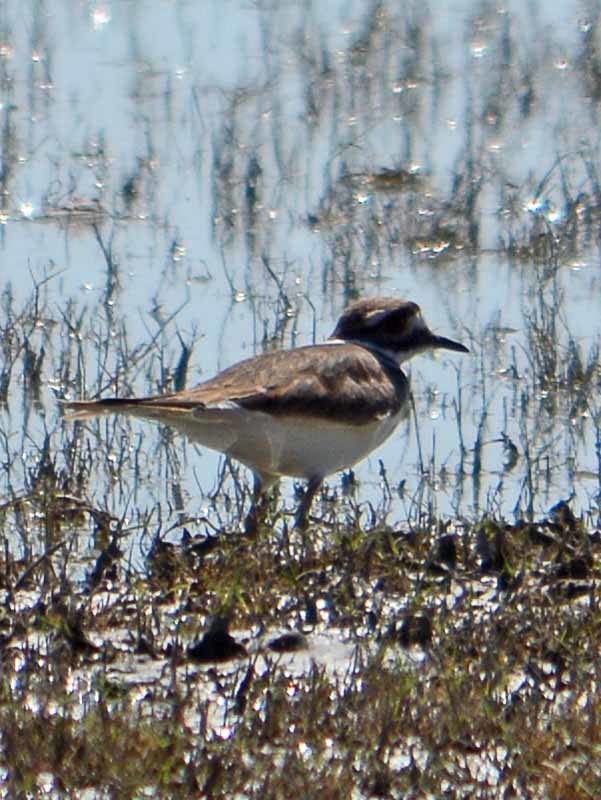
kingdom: Animalia
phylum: Chordata
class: Aves
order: Charadriiformes
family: Charadriidae
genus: Charadrius
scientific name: Charadrius vociferus
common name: Killdeer
